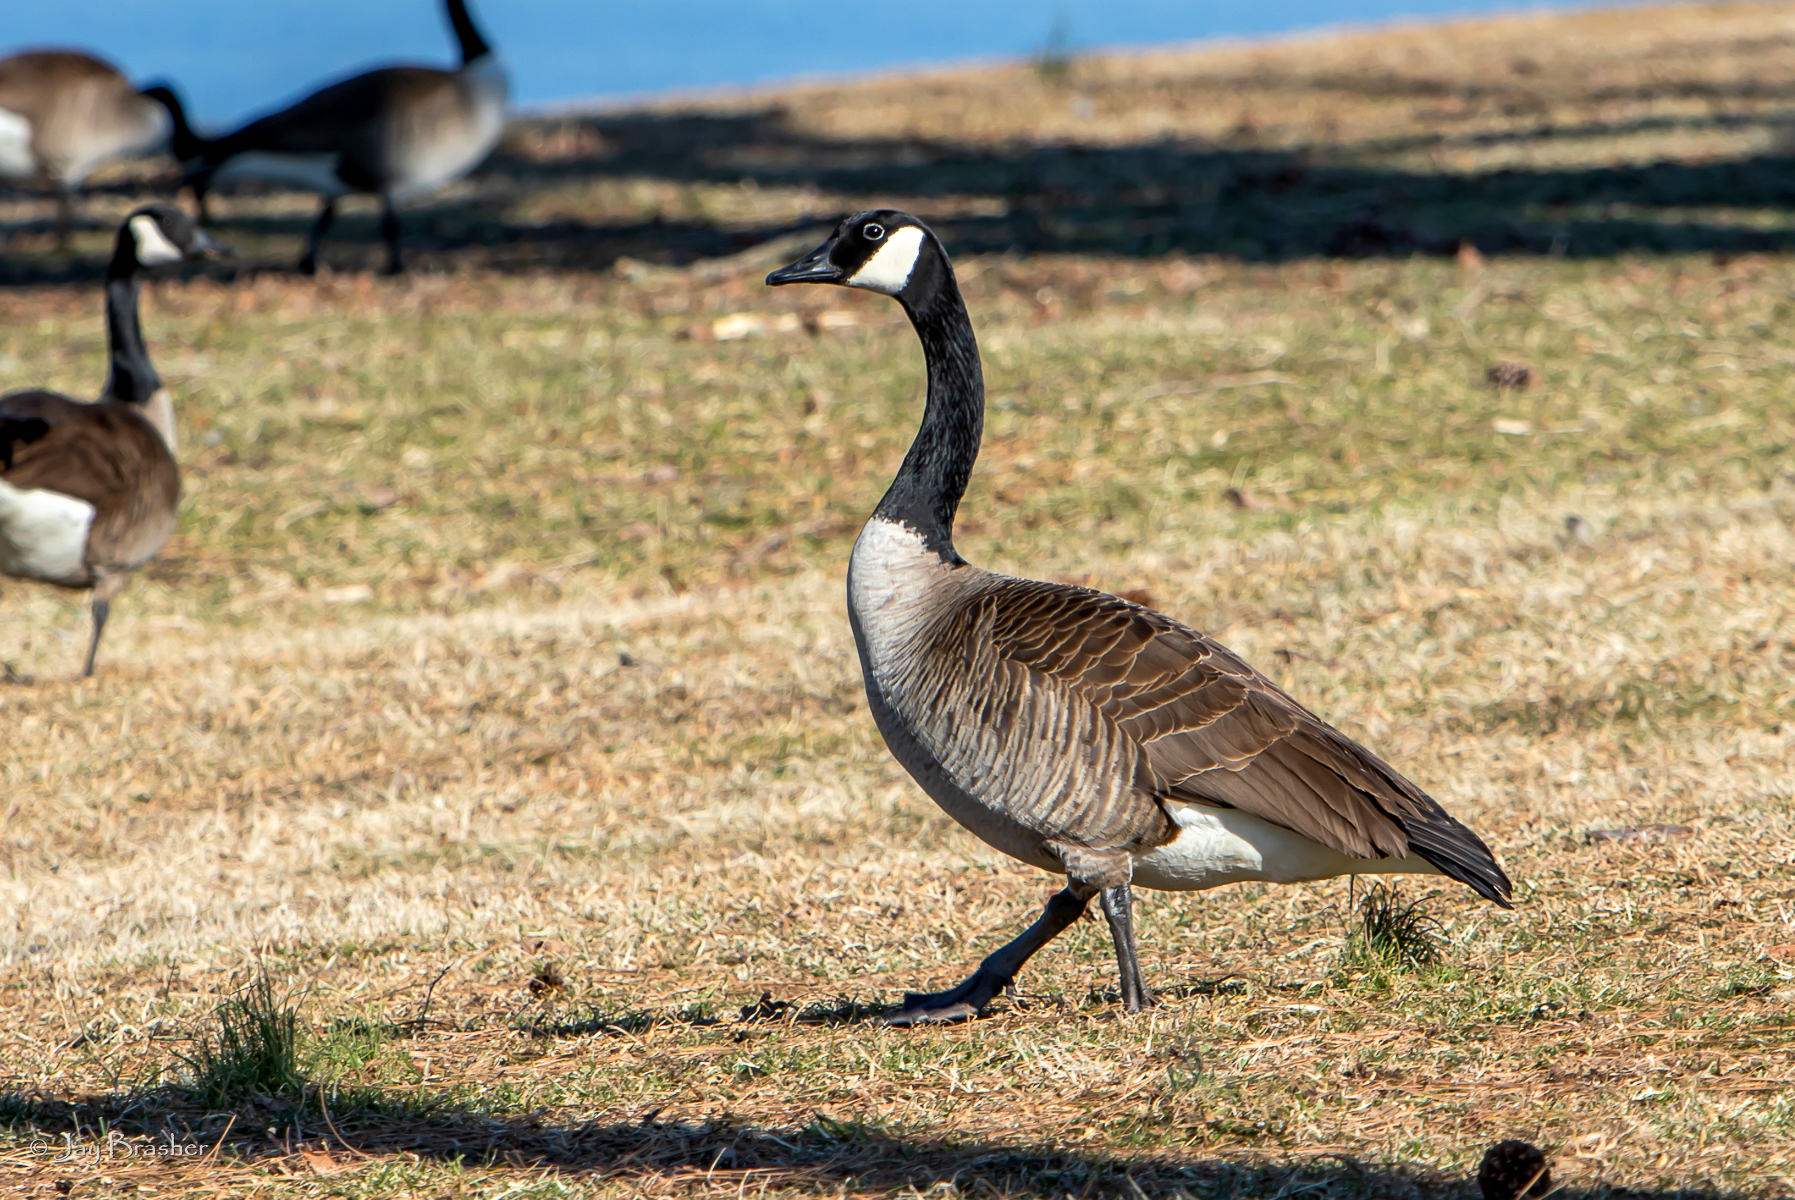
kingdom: Animalia
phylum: Chordata
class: Aves
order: Anseriformes
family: Anatidae
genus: Branta
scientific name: Branta canadensis
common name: Canada goose
